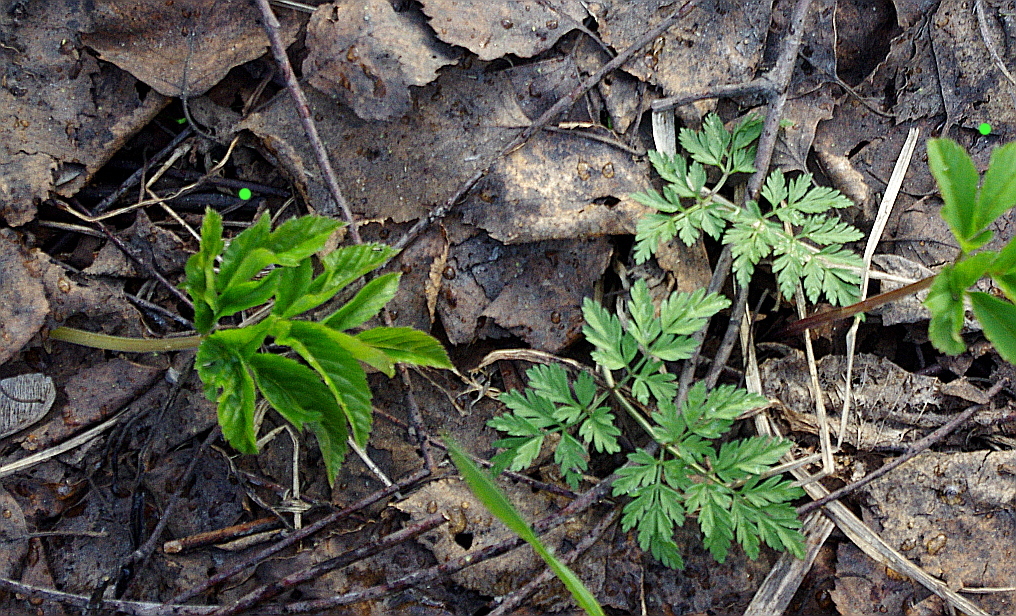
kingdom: Plantae
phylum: Tracheophyta
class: Magnoliopsida
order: Apiales
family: Apiaceae
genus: Aegopodium
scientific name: Aegopodium podagraria
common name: Ground-elder
